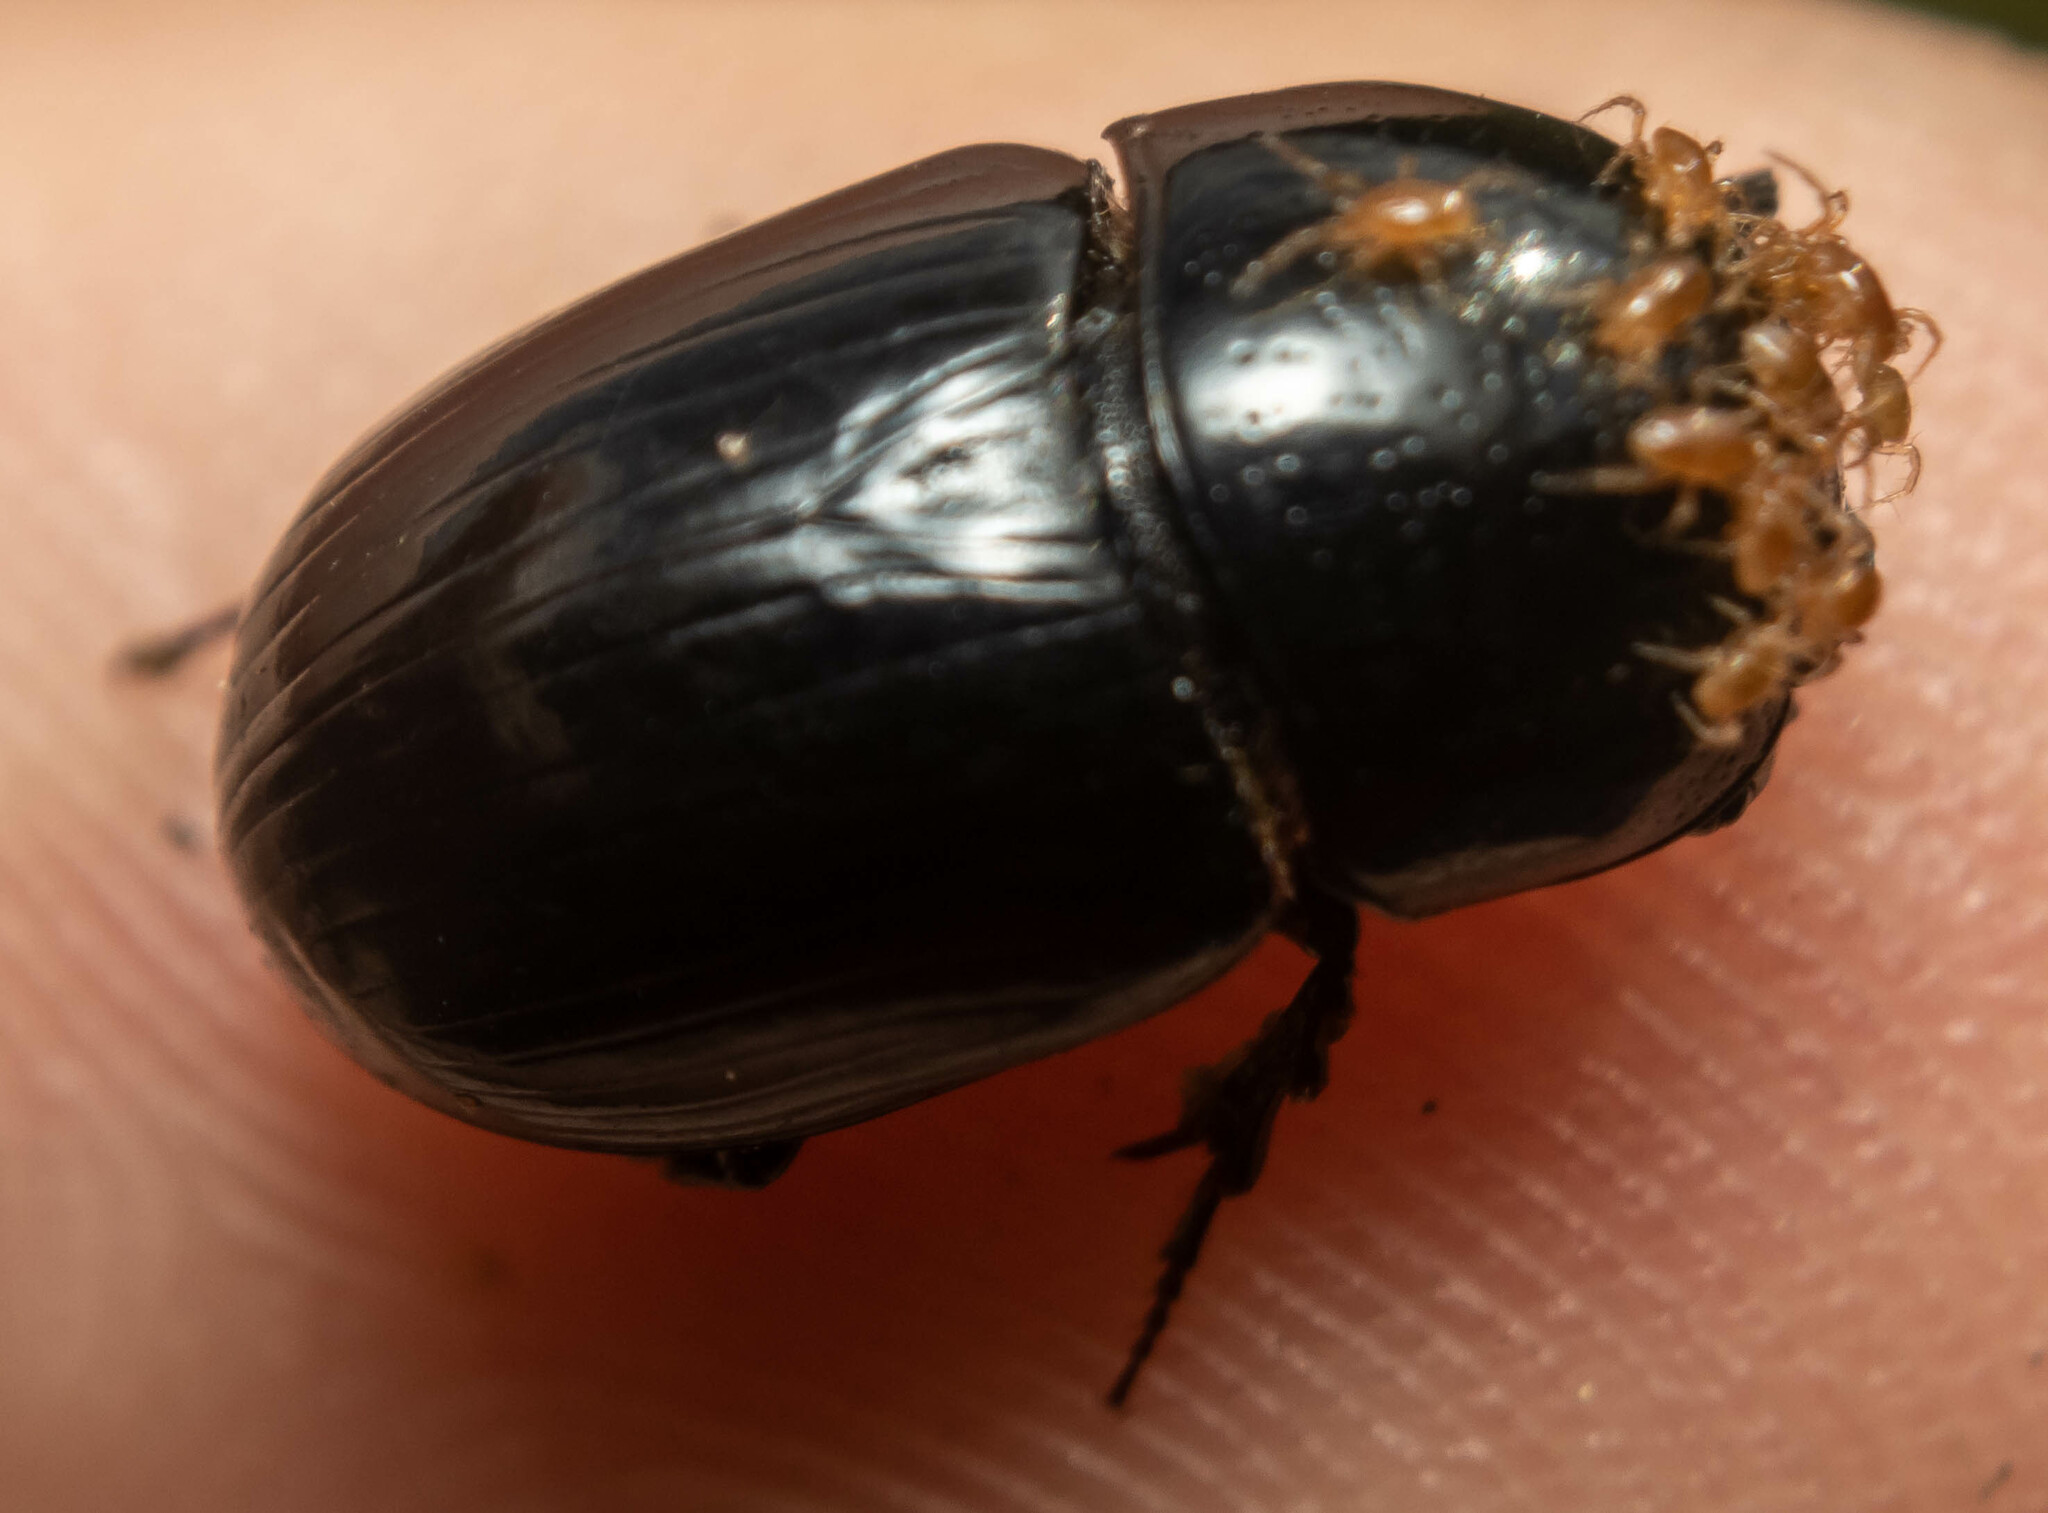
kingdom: Animalia
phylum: Arthropoda
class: Insecta
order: Coleoptera
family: Scarabaeidae
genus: Teuchestes
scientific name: Teuchestes fossor
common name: Digger small dung beetle
